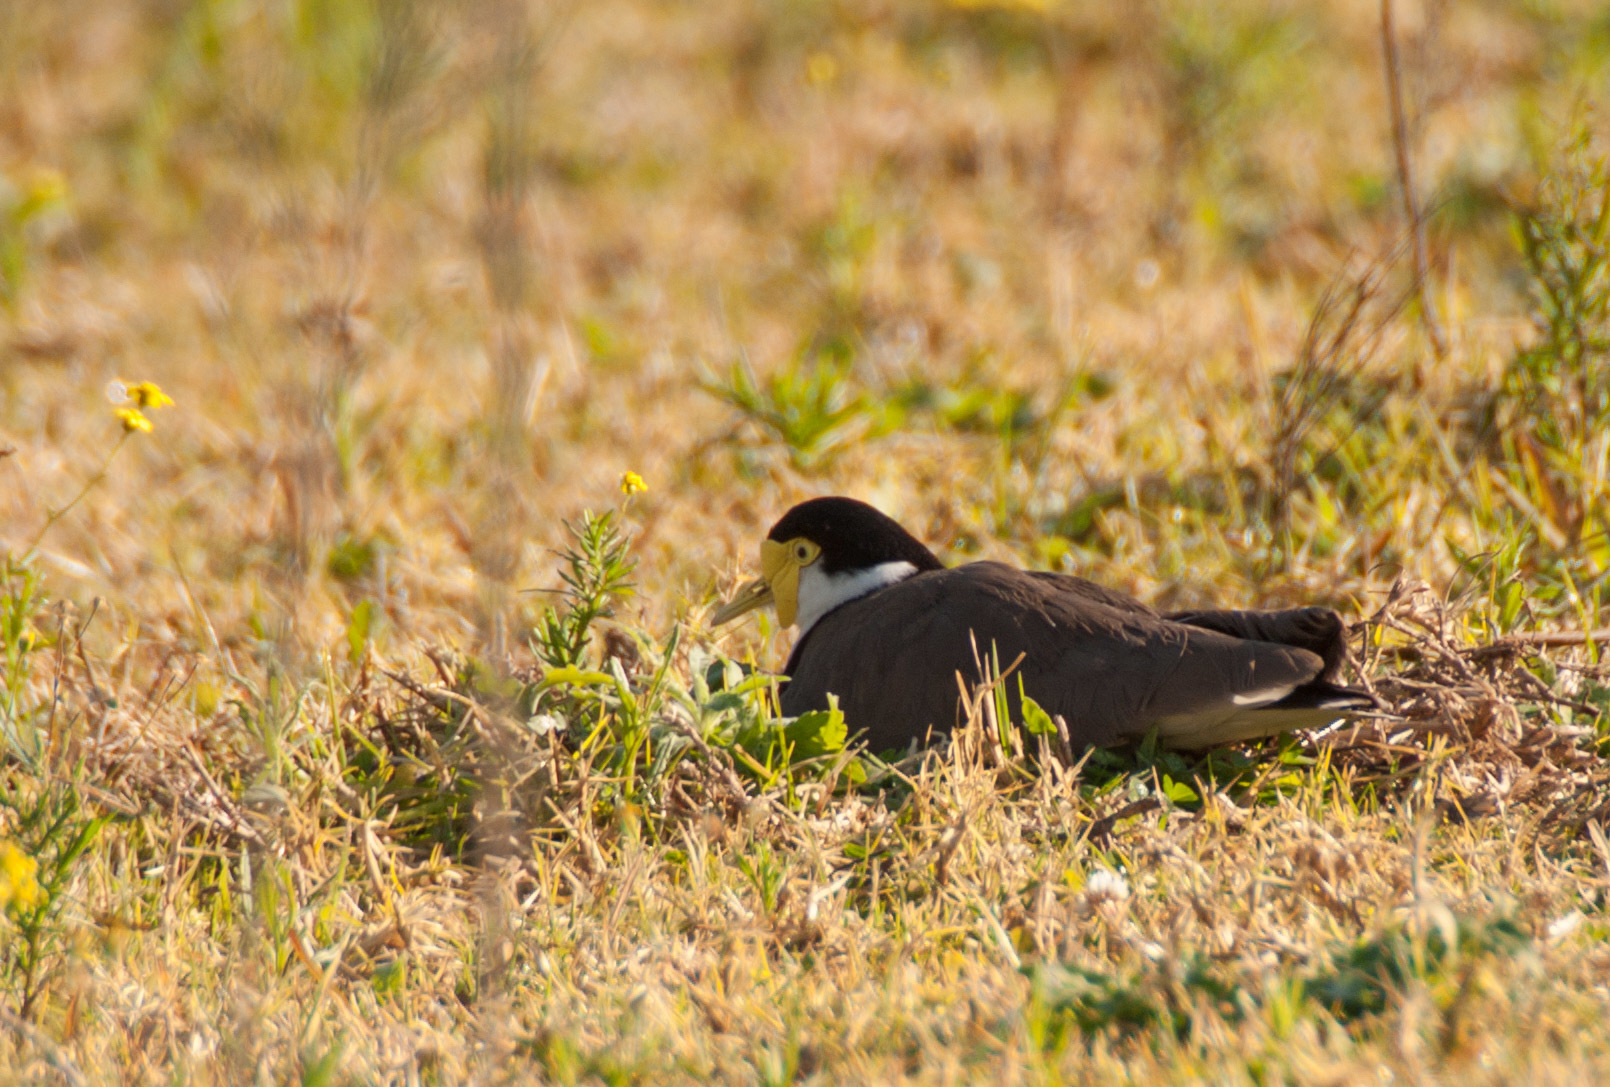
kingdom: Animalia
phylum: Chordata
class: Aves
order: Charadriiformes
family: Charadriidae
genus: Vanellus
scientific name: Vanellus miles
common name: Masked lapwing
